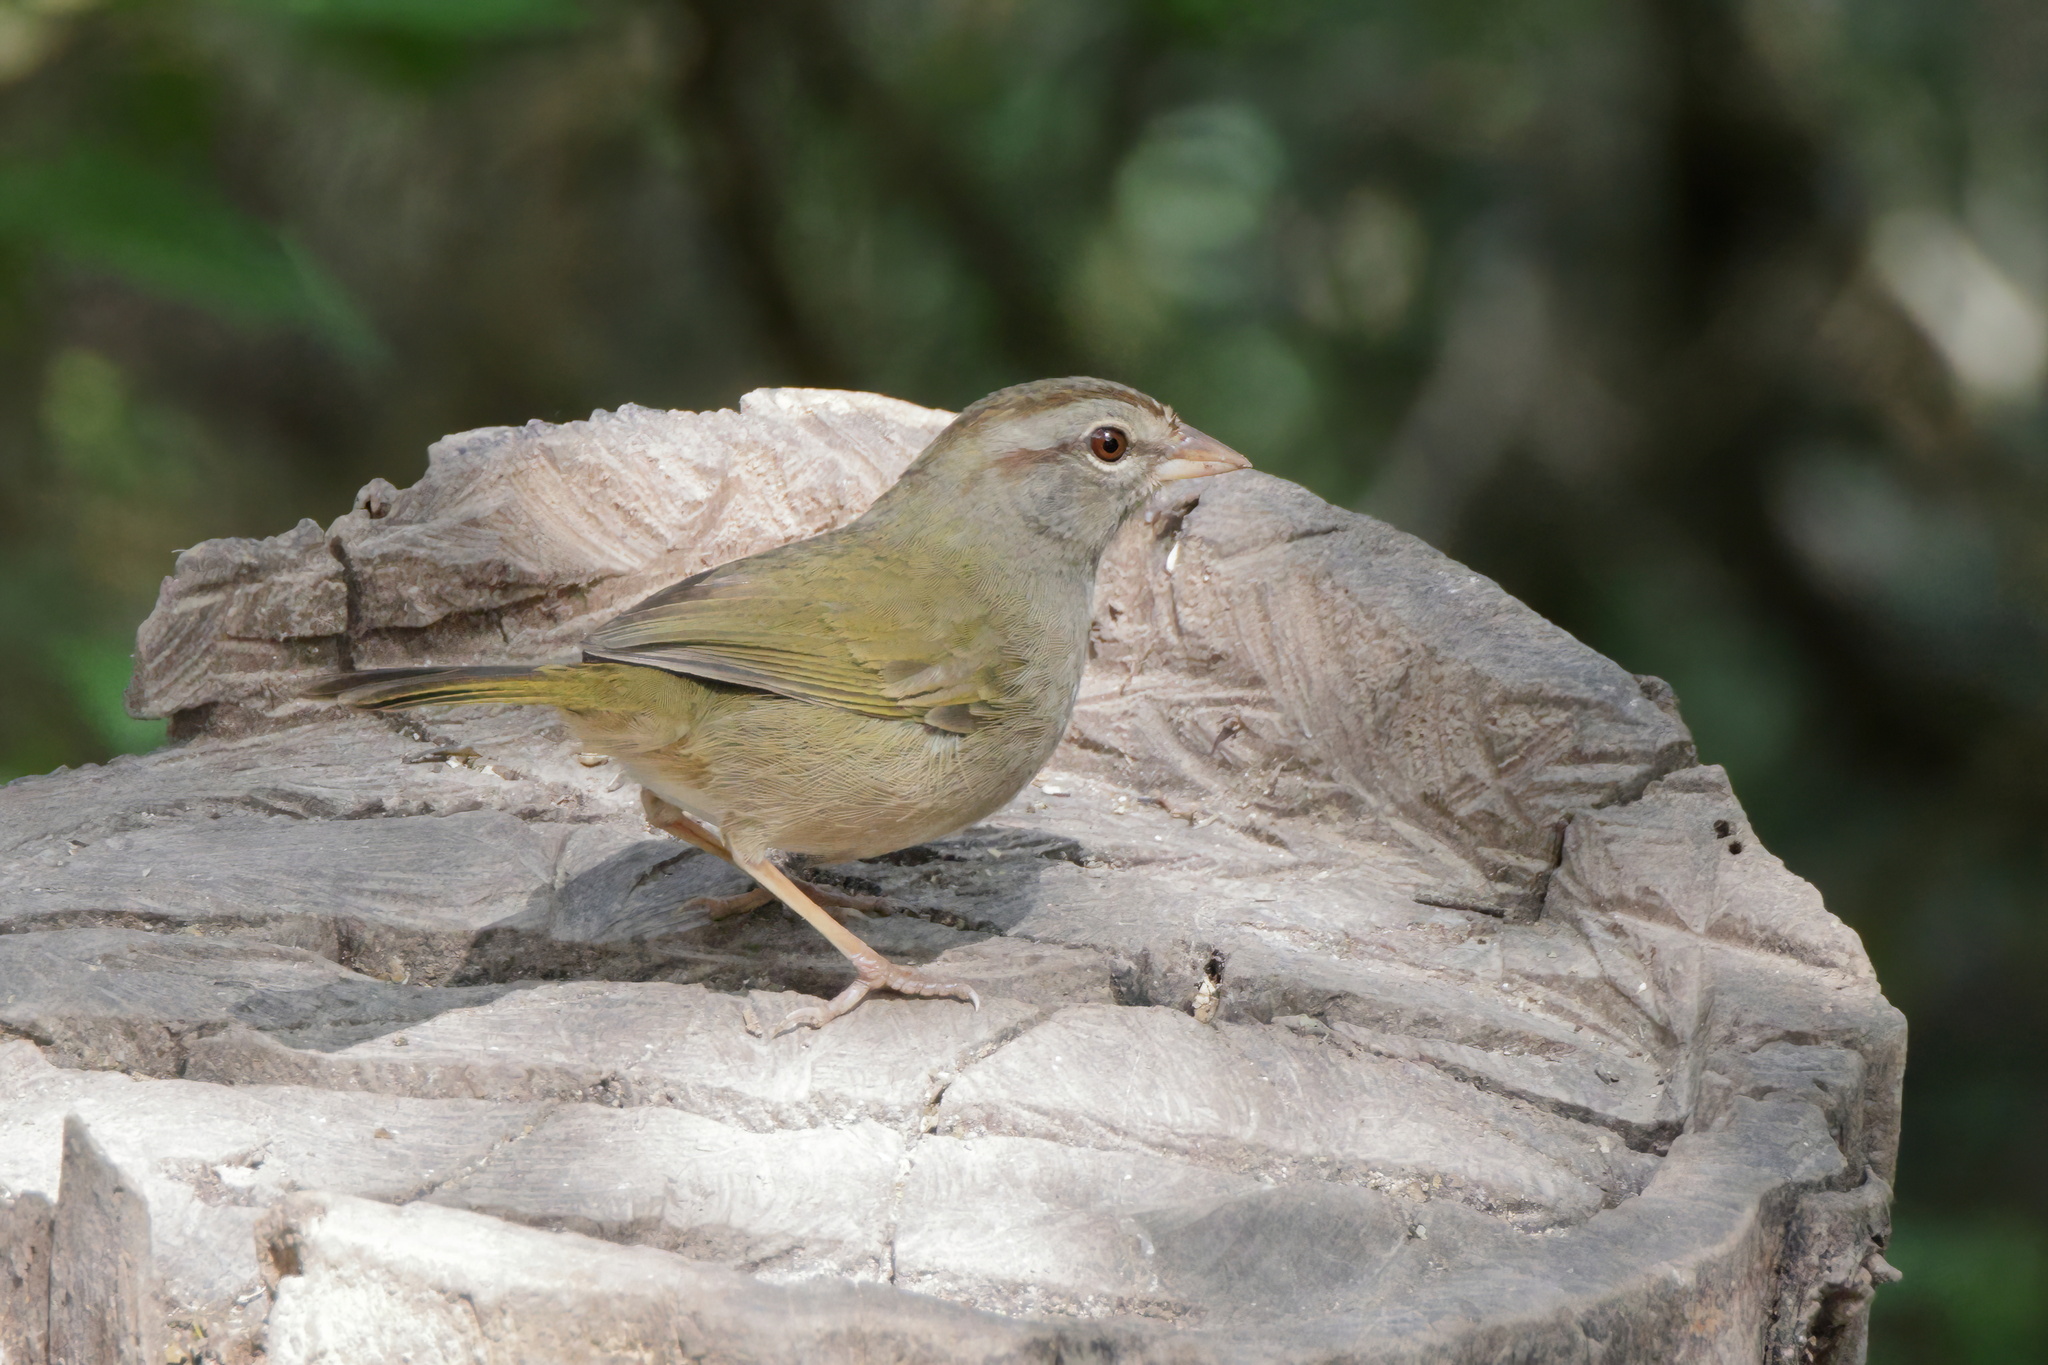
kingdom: Animalia
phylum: Chordata
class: Aves
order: Passeriformes
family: Passerellidae
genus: Arremonops
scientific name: Arremonops rufivirgatus
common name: Olive sparrow
